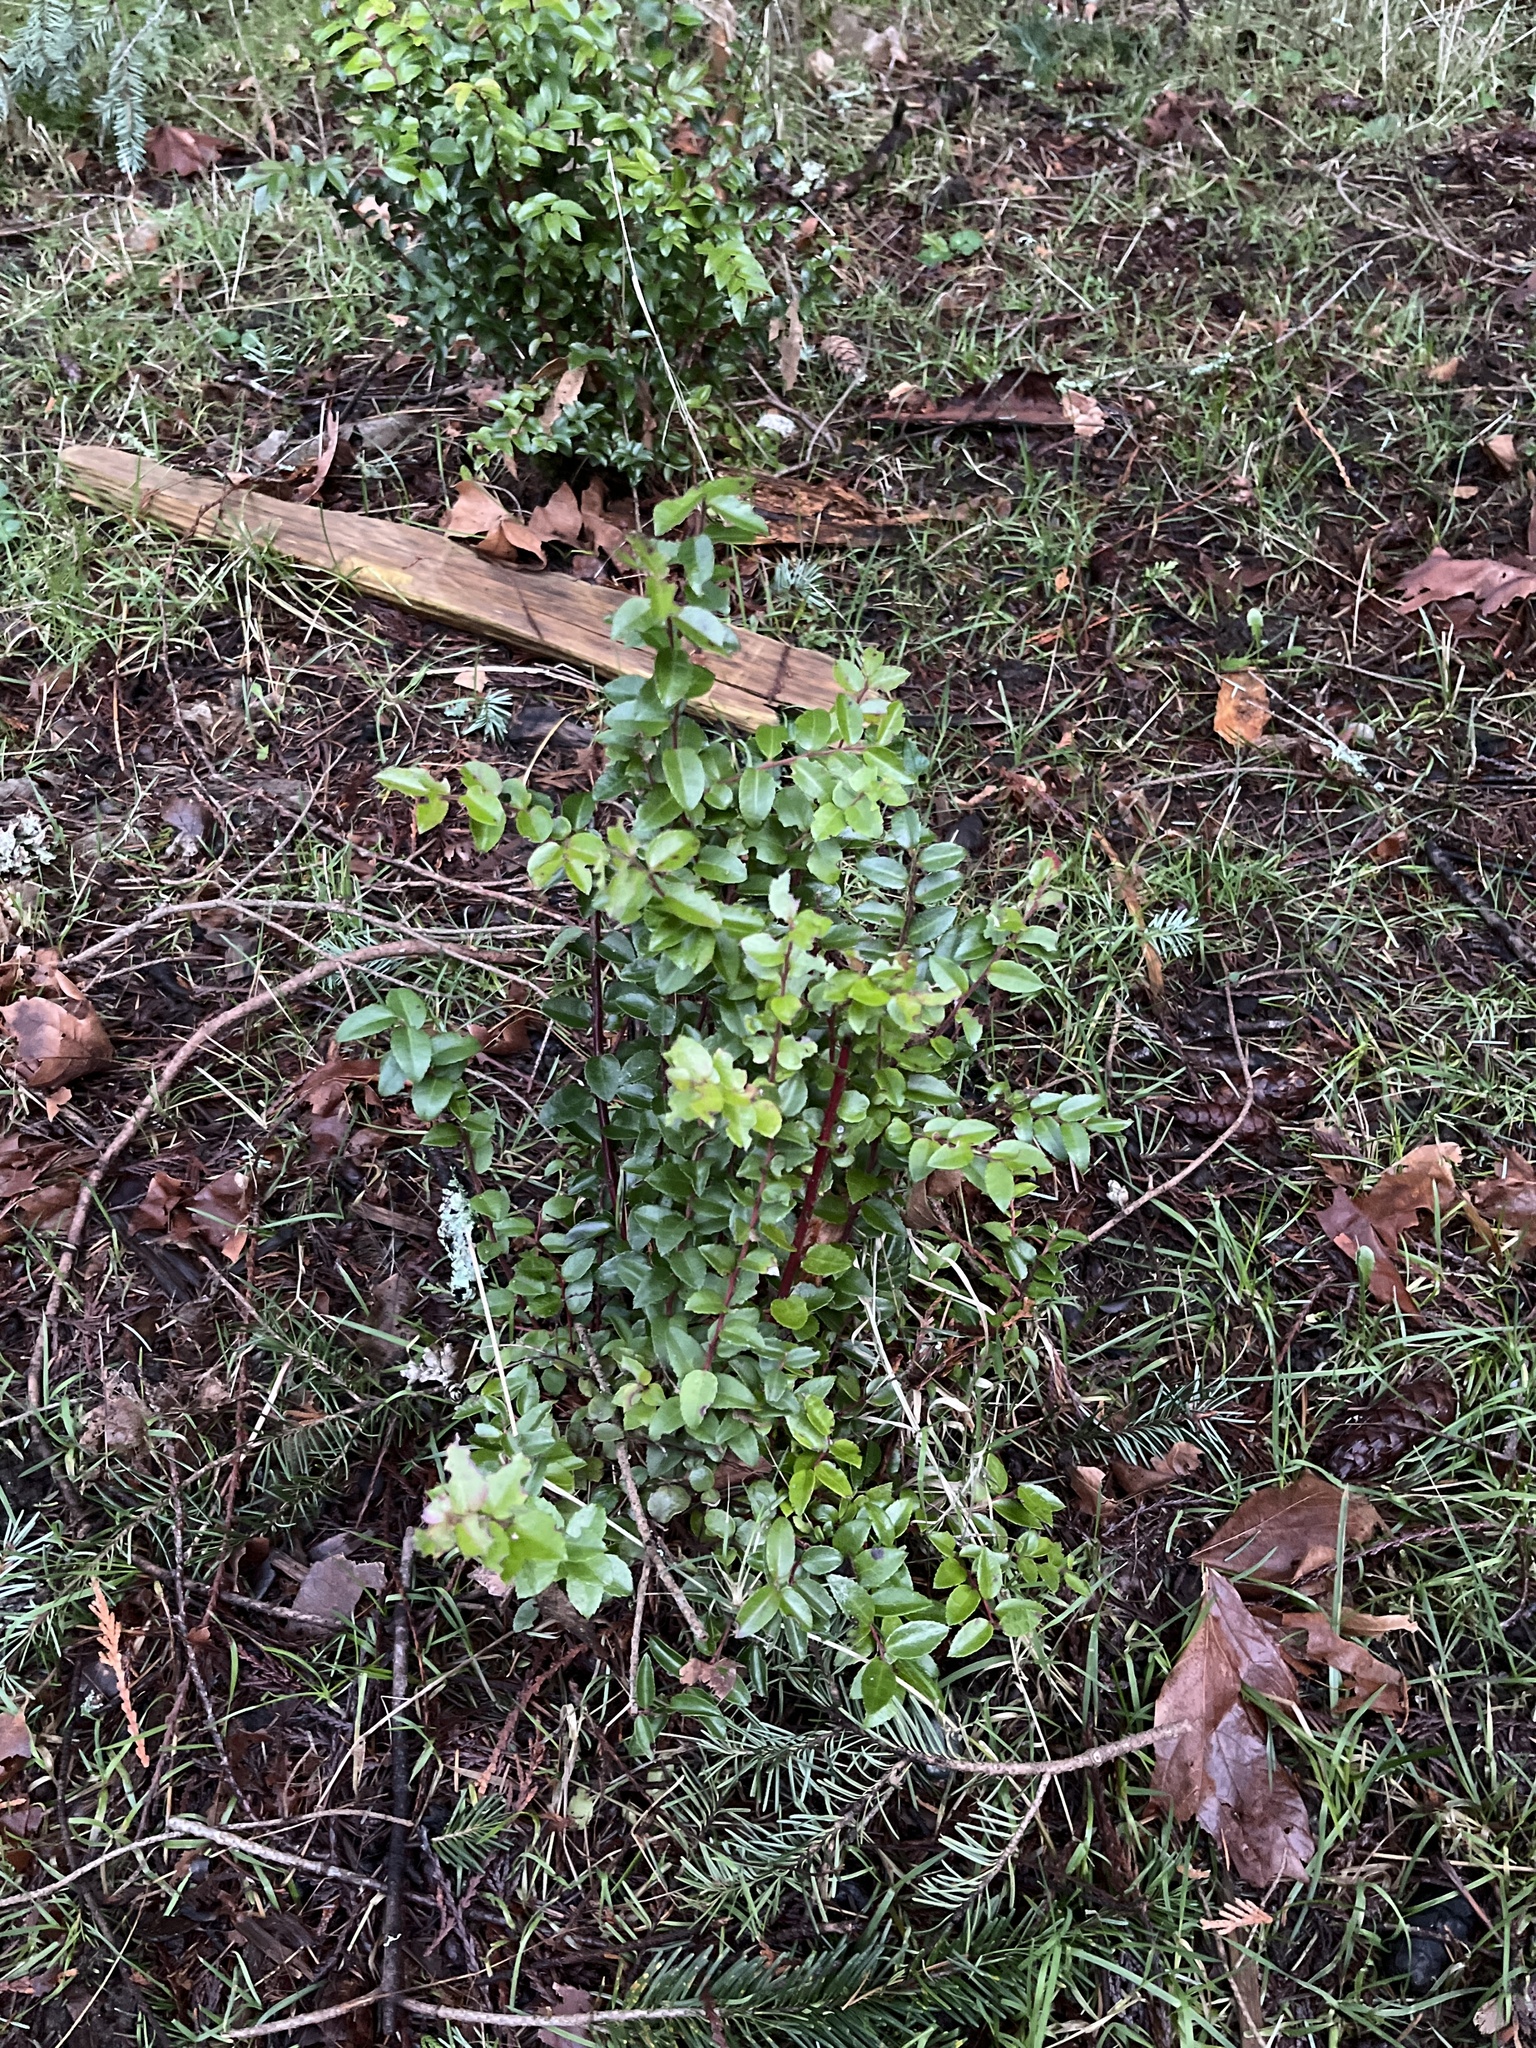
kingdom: Plantae
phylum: Tracheophyta
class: Magnoliopsida
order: Ericales
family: Ericaceae
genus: Vaccinium
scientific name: Vaccinium ovatum
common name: California-huckleberry
